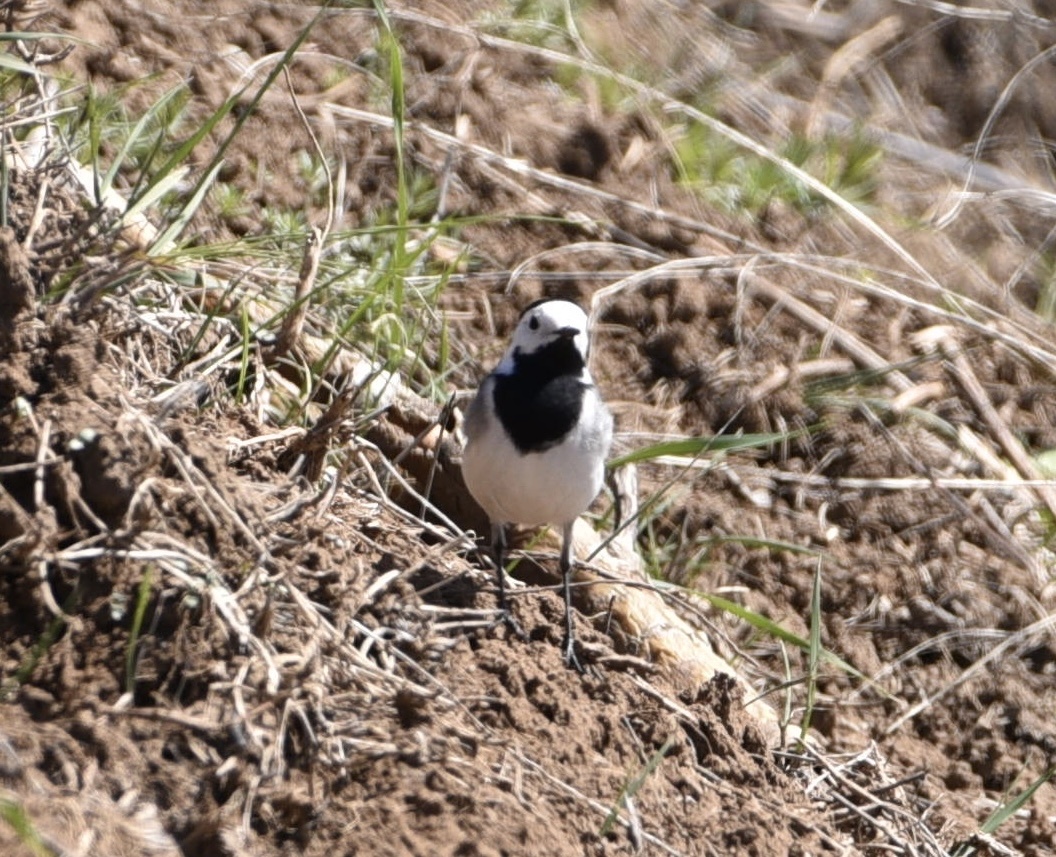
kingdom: Animalia
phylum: Chordata
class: Aves
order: Passeriformes
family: Motacillidae
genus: Motacilla
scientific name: Motacilla alba
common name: White wagtail
